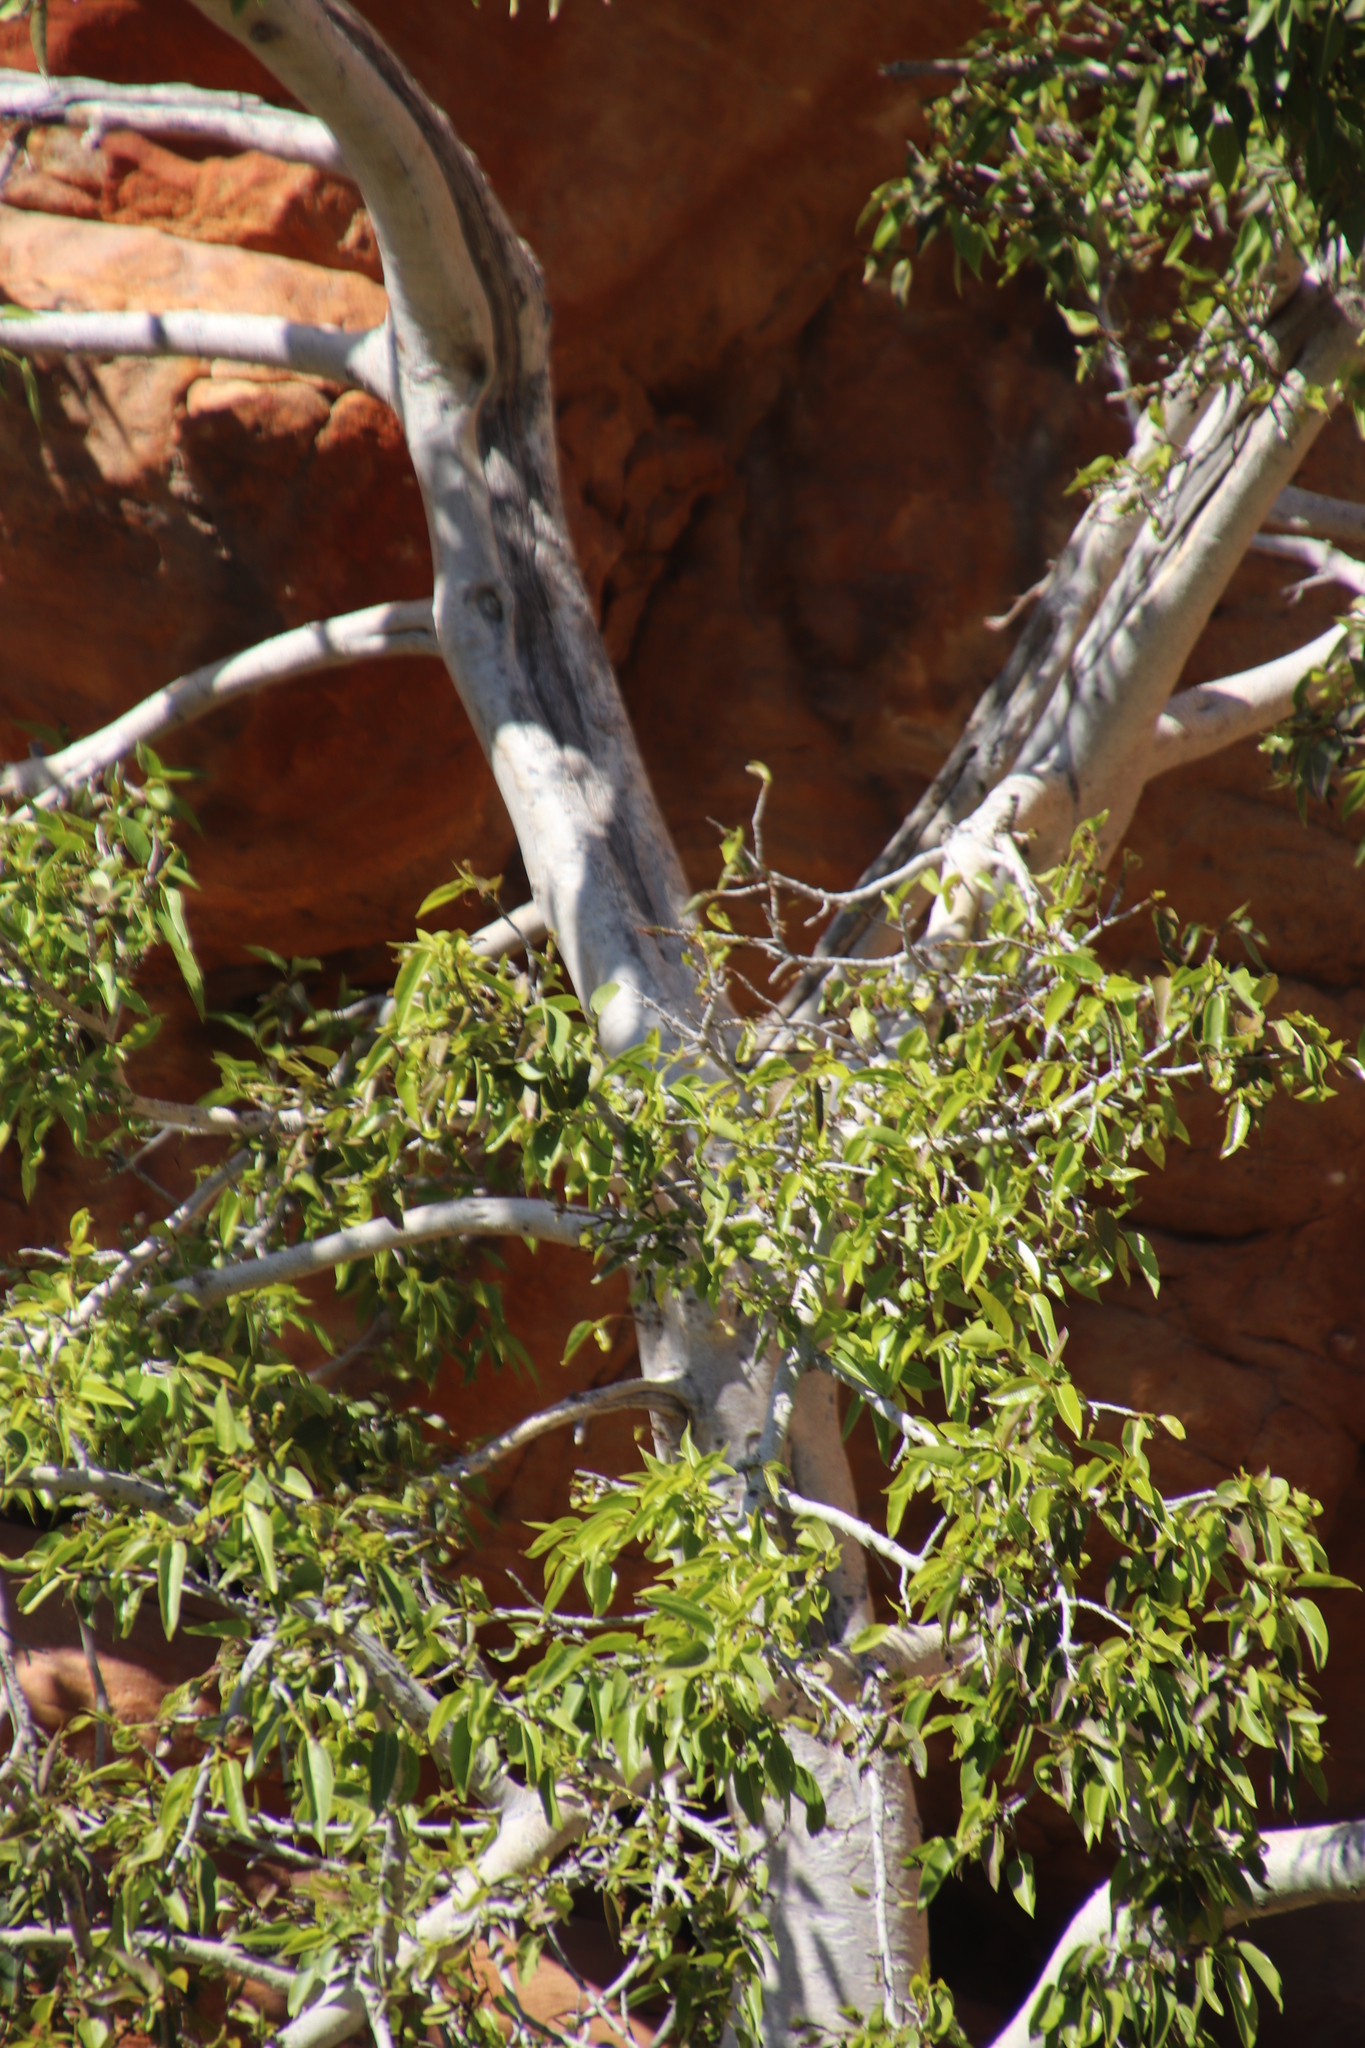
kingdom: Plantae
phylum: Tracheophyta
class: Magnoliopsida
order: Rosales
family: Moraceae
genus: Ficus
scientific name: Ficus cordata
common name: Namaqua rock fig
